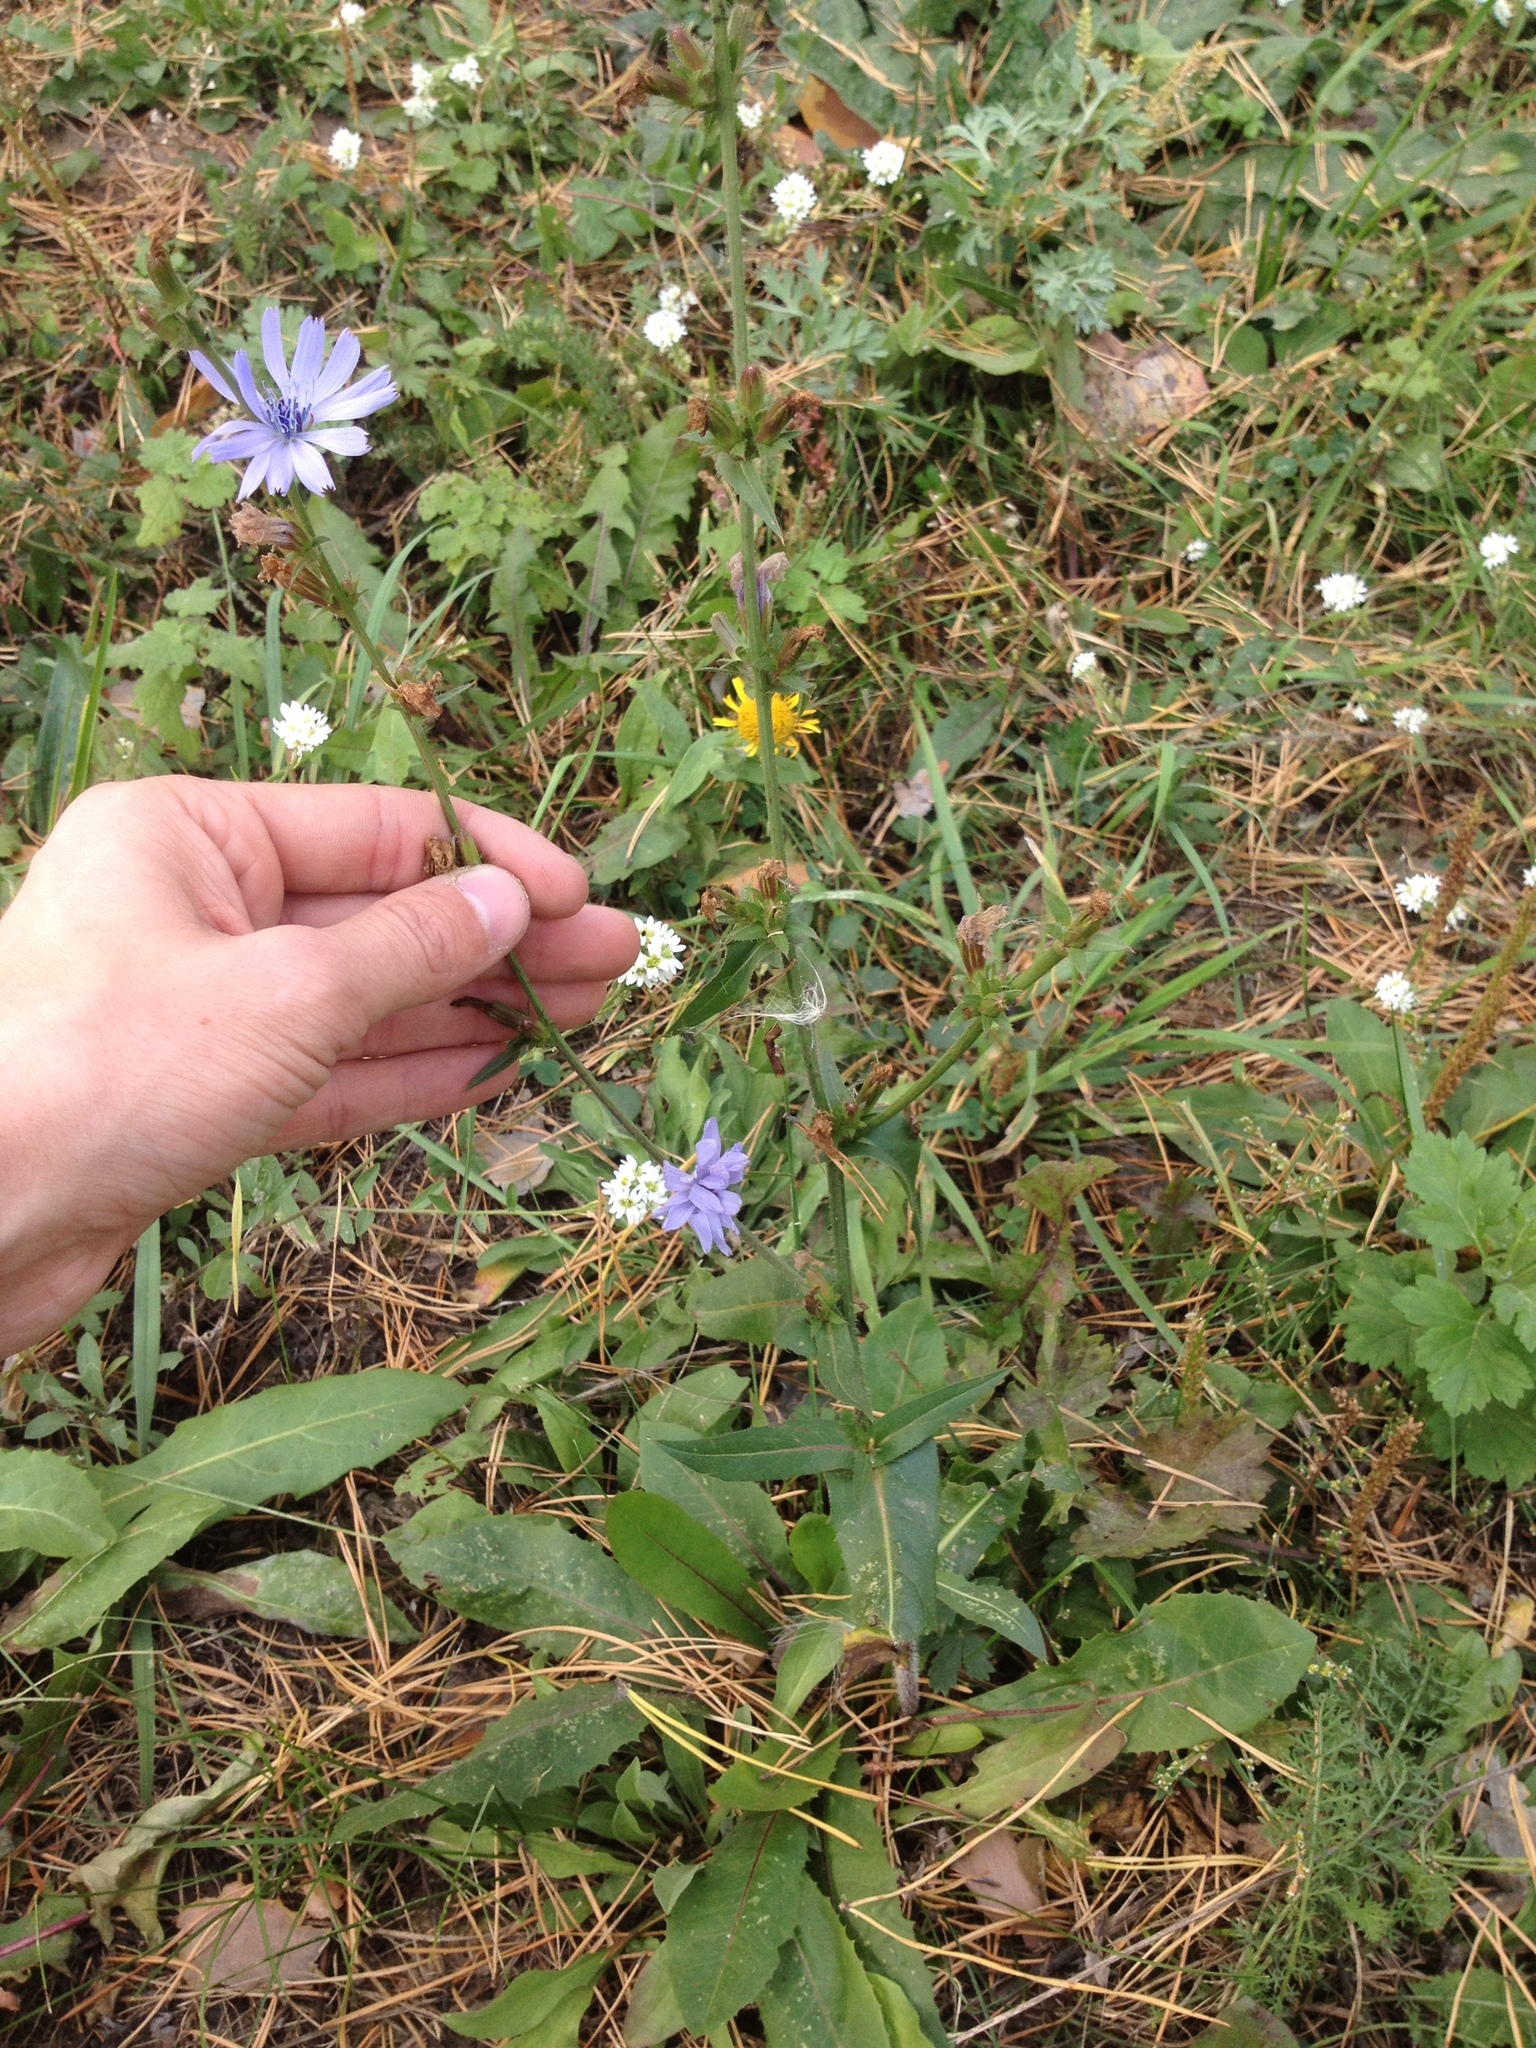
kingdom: Plantae
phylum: Tracheophyta
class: Magnoliopsida
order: Asterales
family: Asteraceae
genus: Cichorium
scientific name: Cichorium intybus
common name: Chicory
